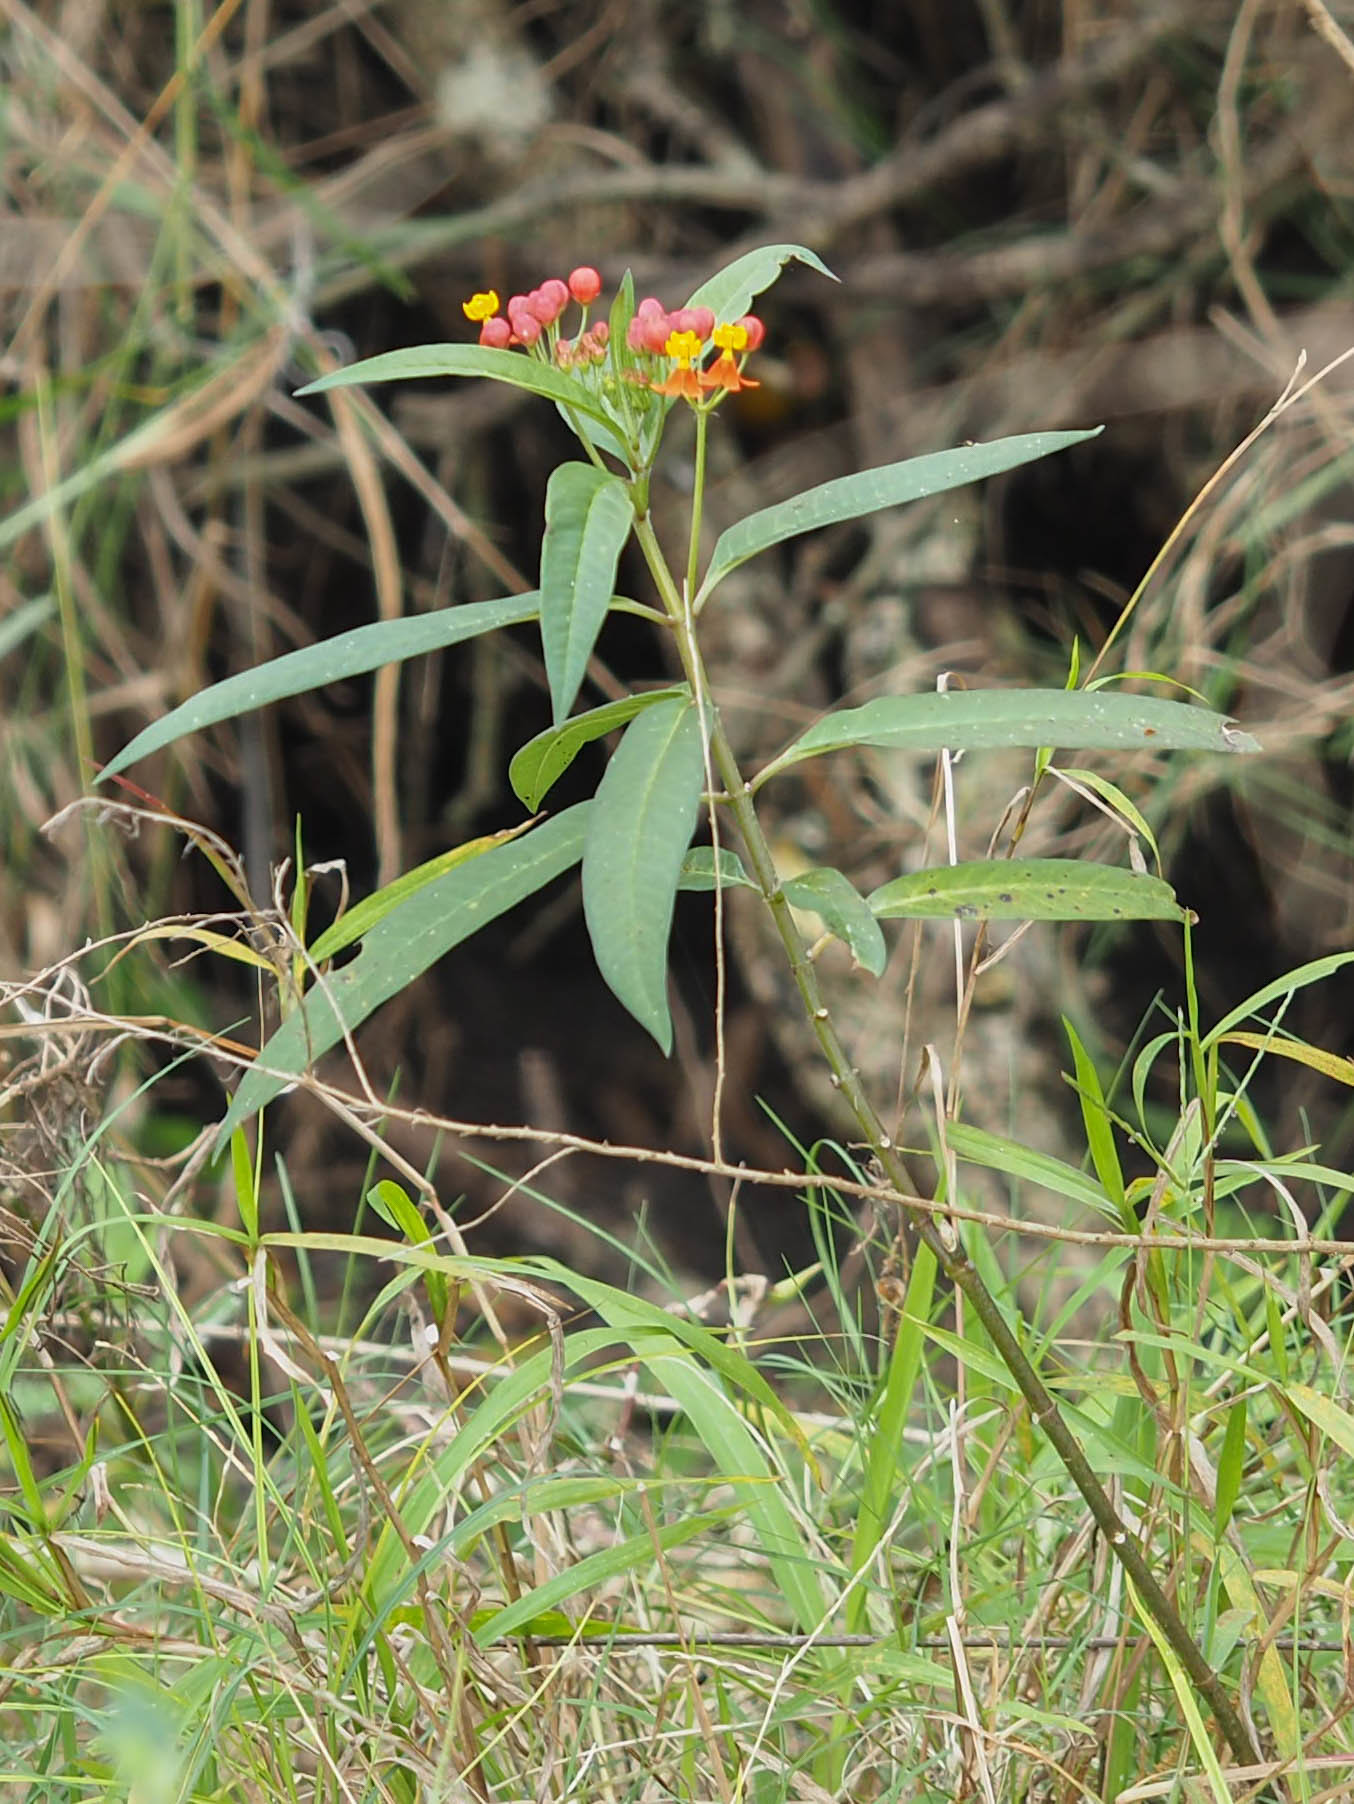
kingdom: Plantae
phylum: Tracheophyta
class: Magnoliopsida
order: Gentianales
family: Apocynaceae
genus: Asclepias
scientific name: Asclepias curassavica
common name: Bloodflower
